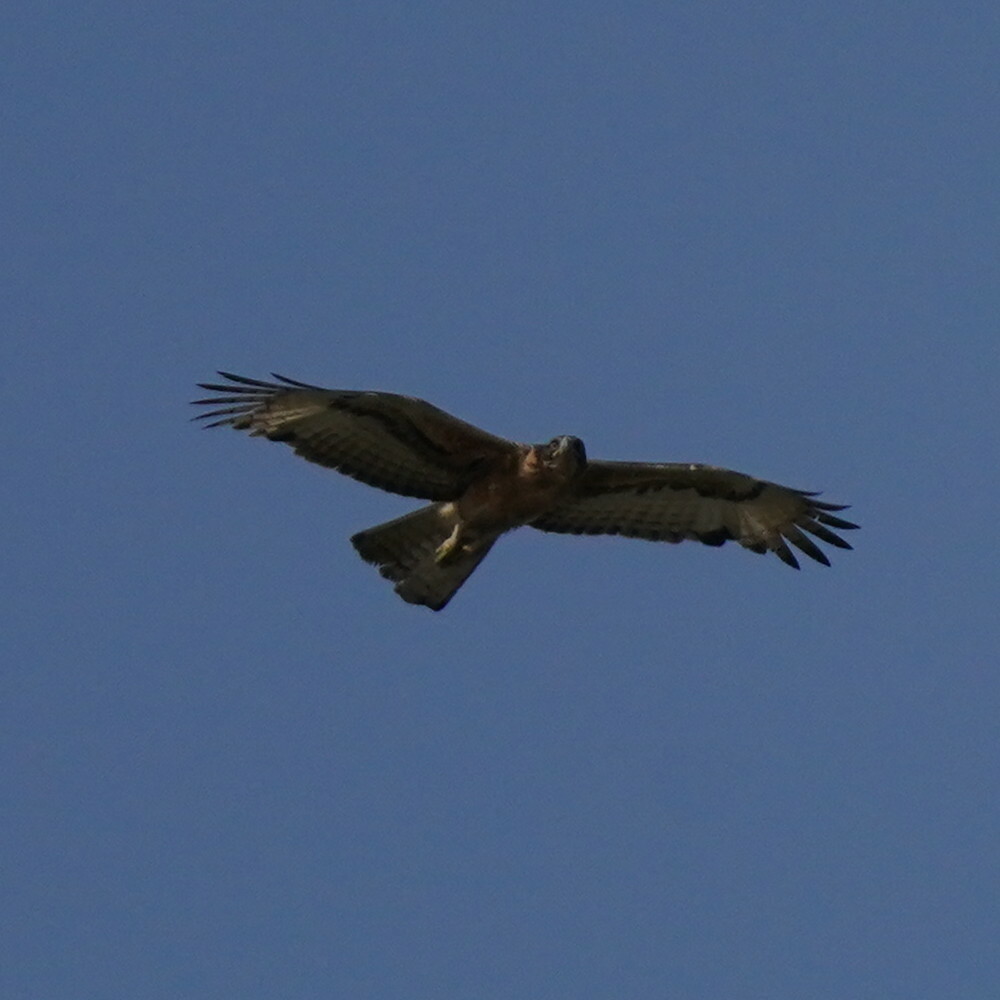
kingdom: Animalia
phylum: Chordata
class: Aves
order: Accipitriformes
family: Accipitridae
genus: Aquila
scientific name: Aquila spilogaster
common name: African hawk-eagle
